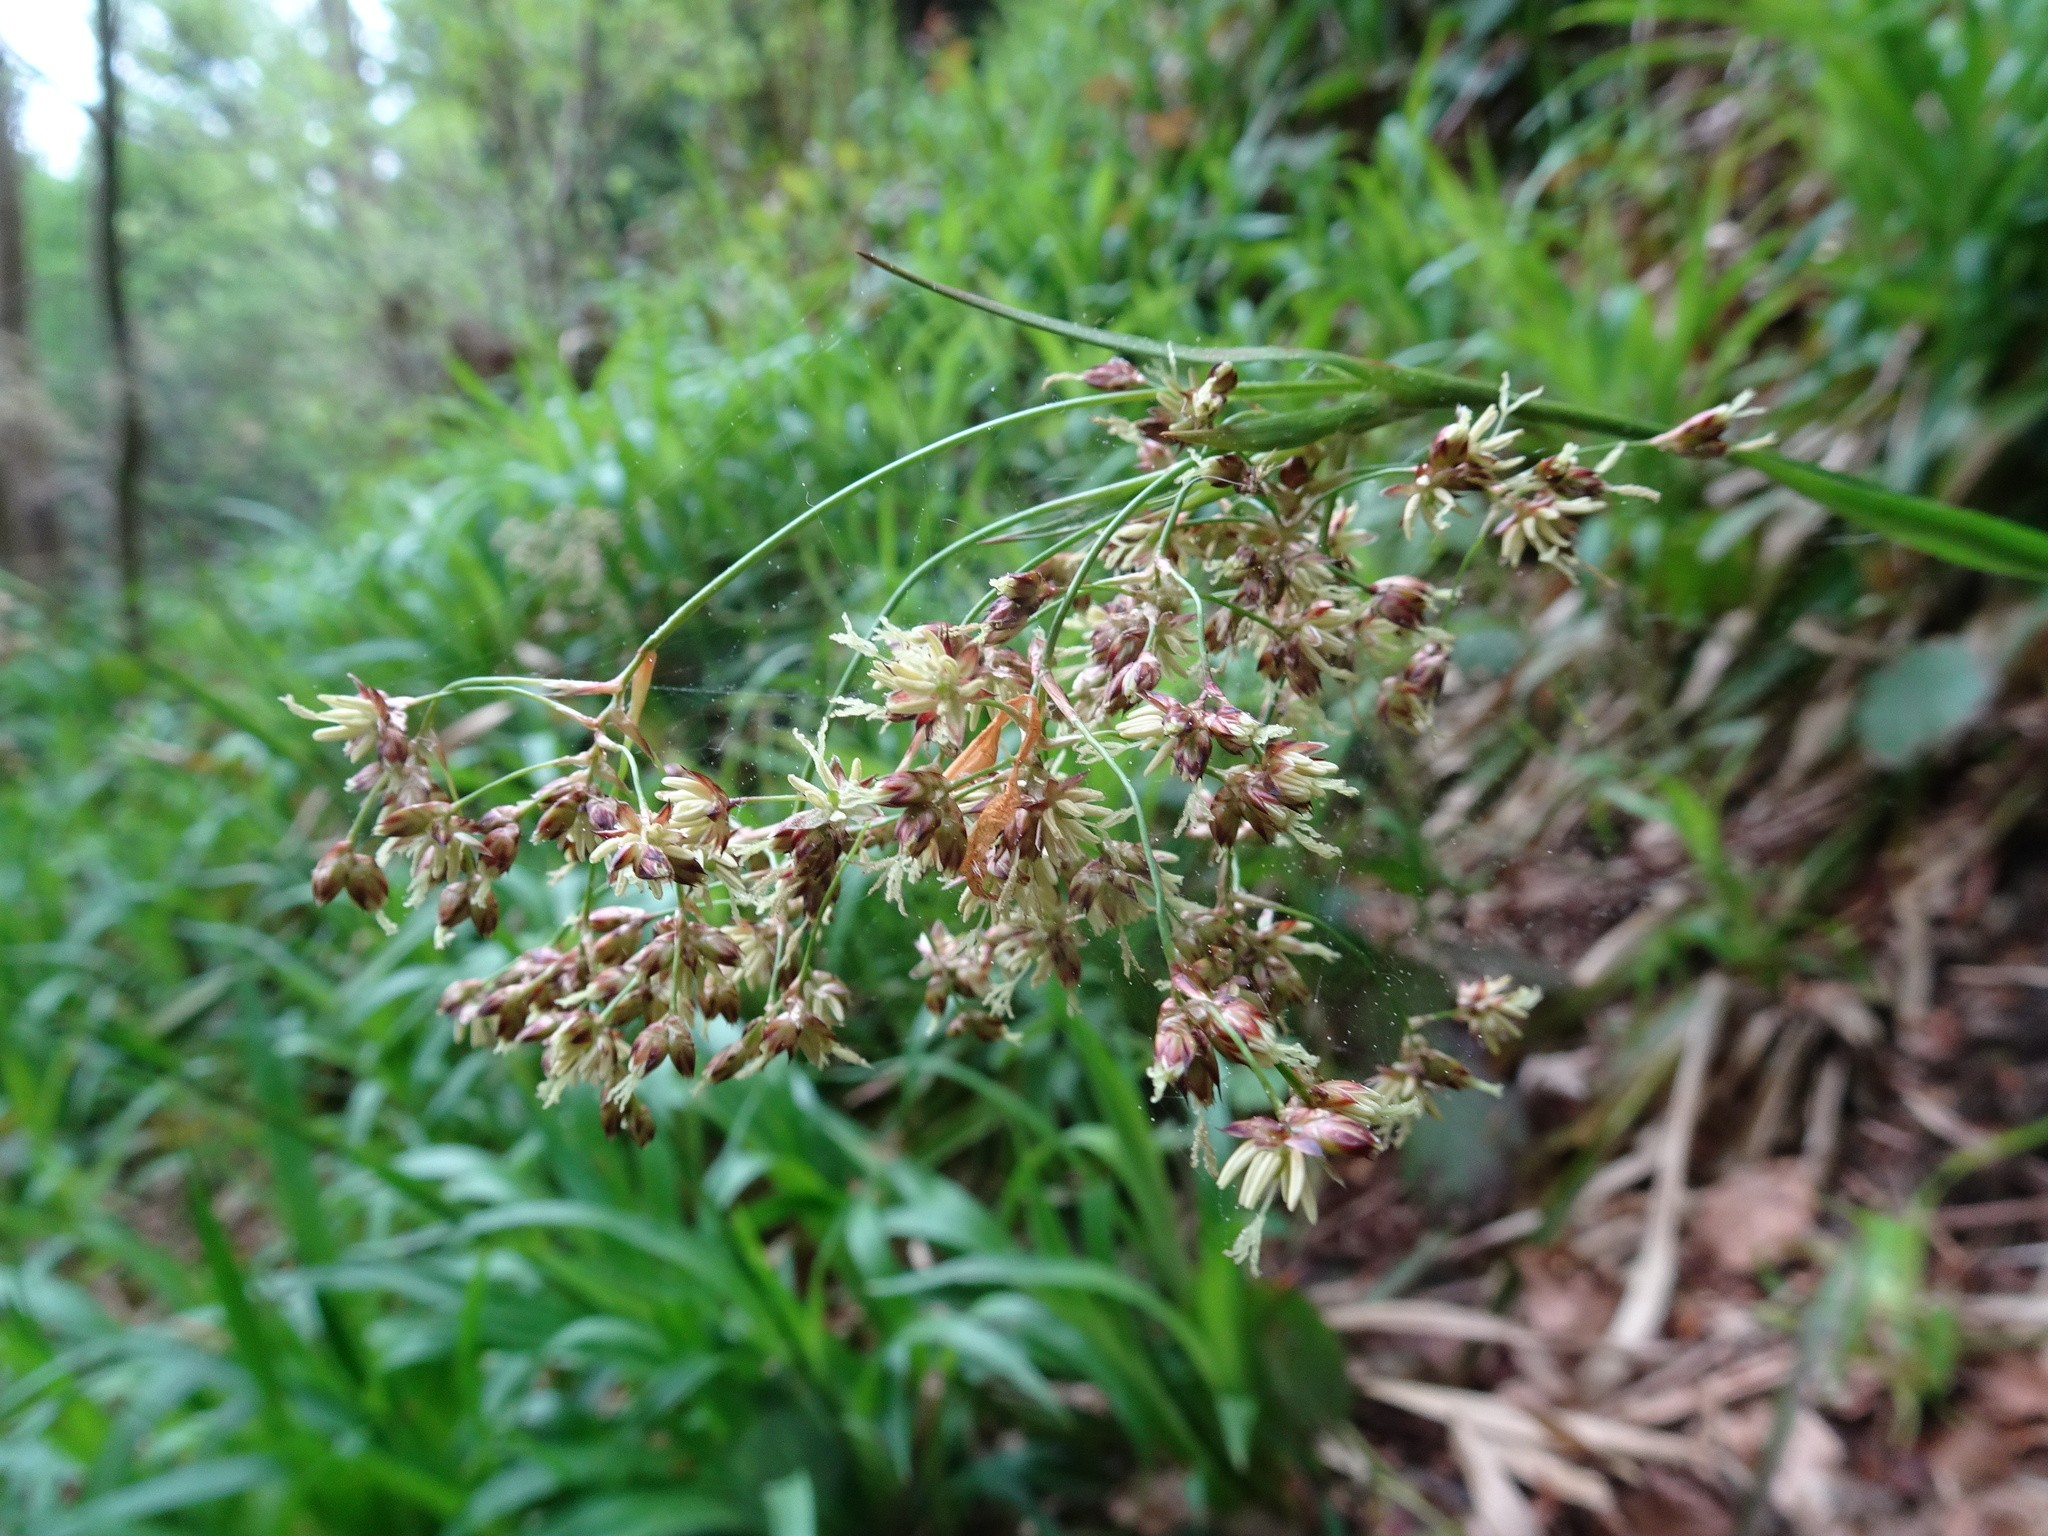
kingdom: Plantae
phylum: Tracheophyta
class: Liliopsida
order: Poales
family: Juncaceae
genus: Luzula
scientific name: Luzula sylvatica
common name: Great wood-rush
